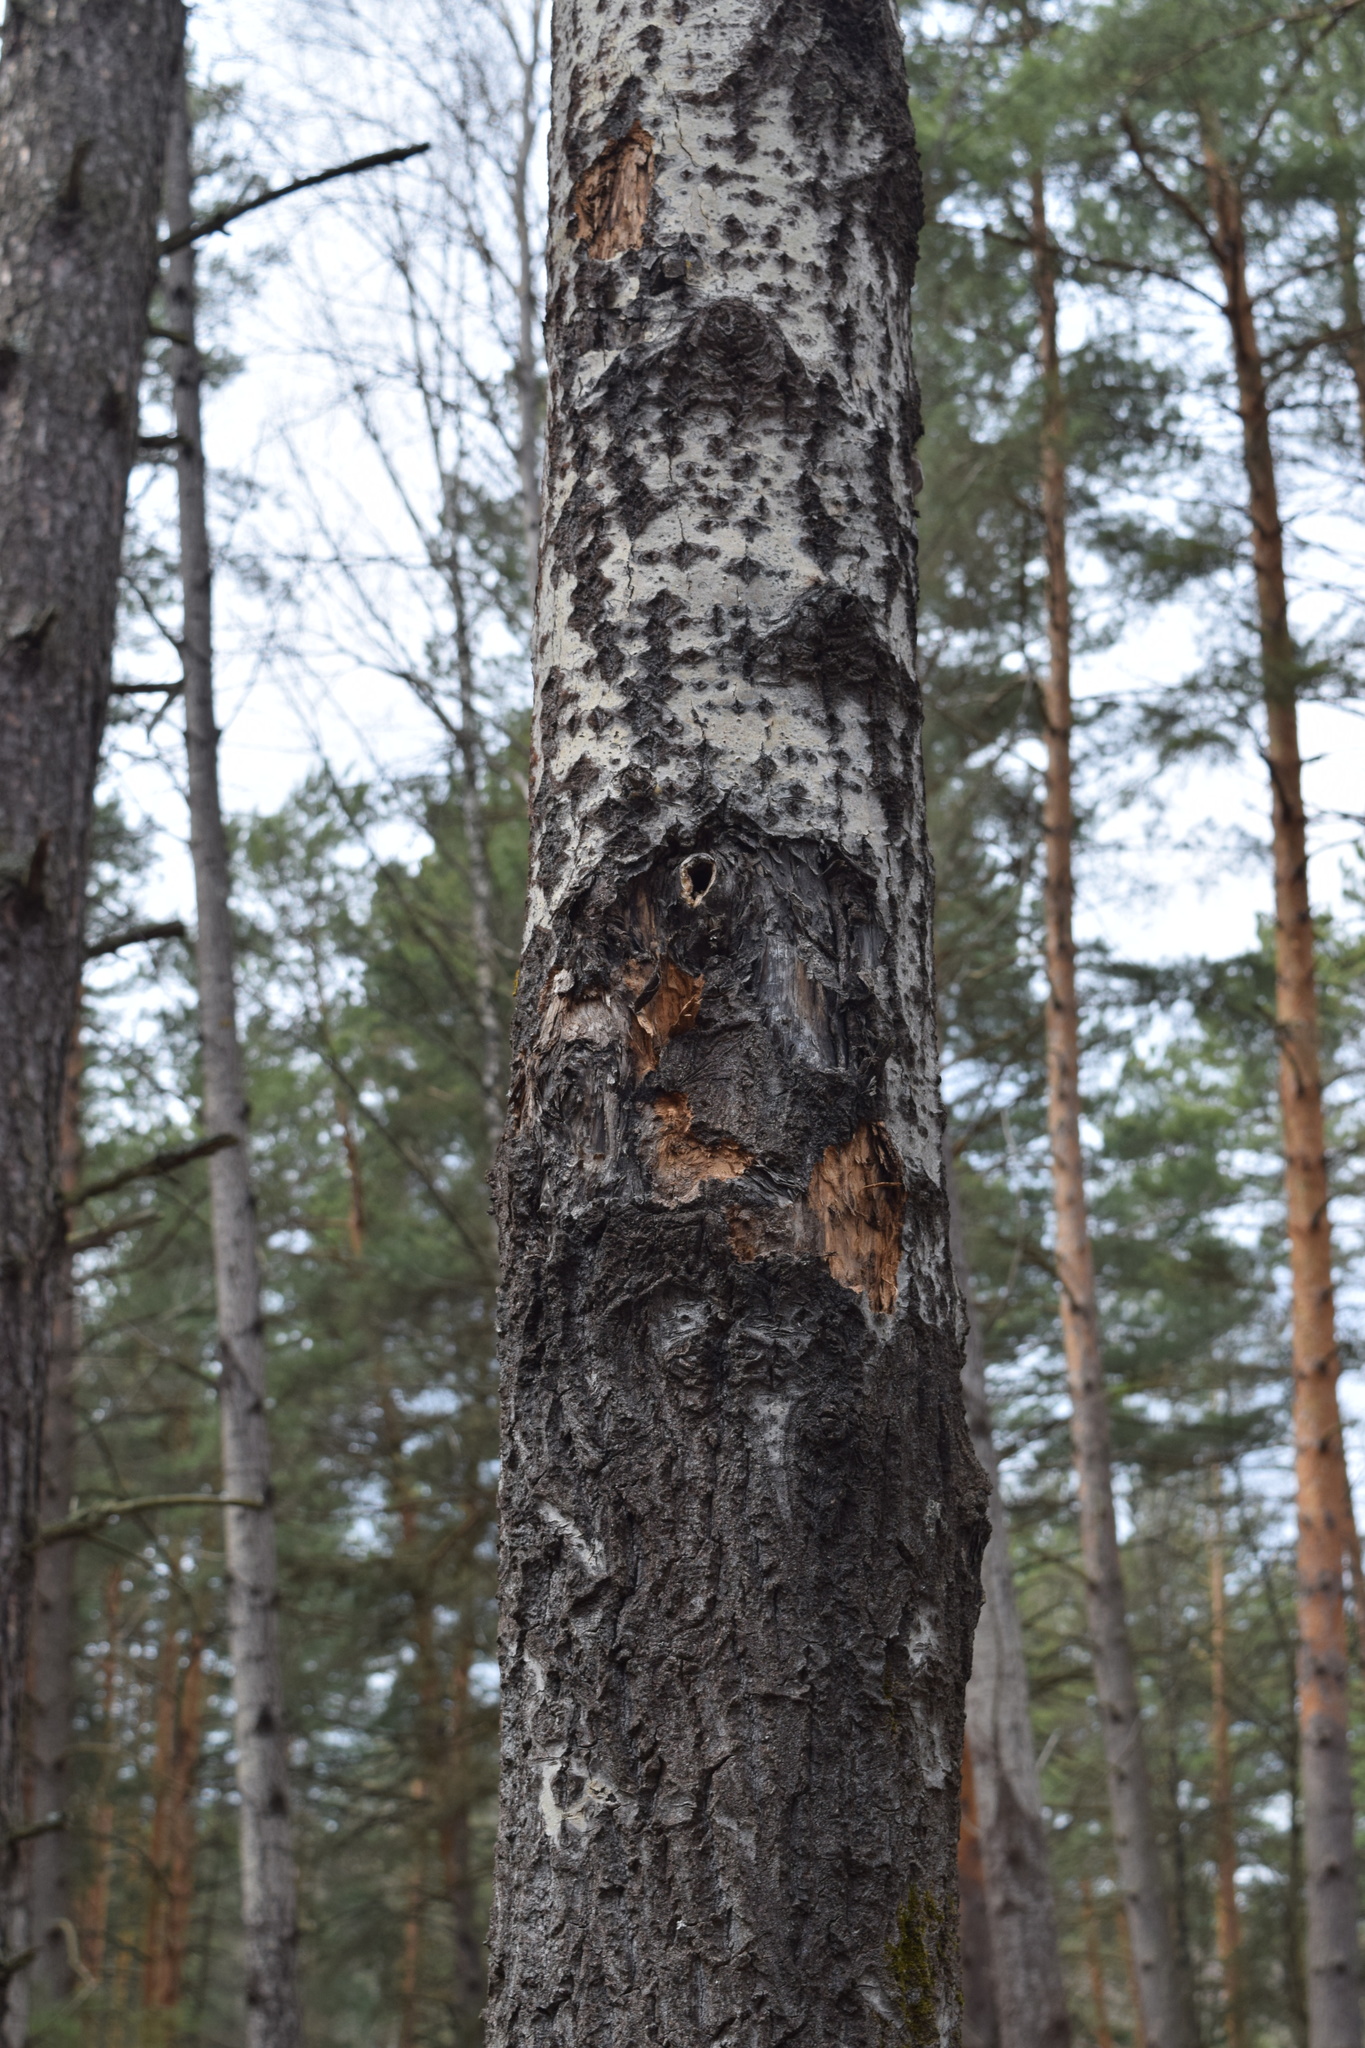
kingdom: Plantae
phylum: Tracheophyta
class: Magnoliopsida
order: Malpighiales
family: Salicaceae
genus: Populus
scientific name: Populus tremula
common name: European aspen
